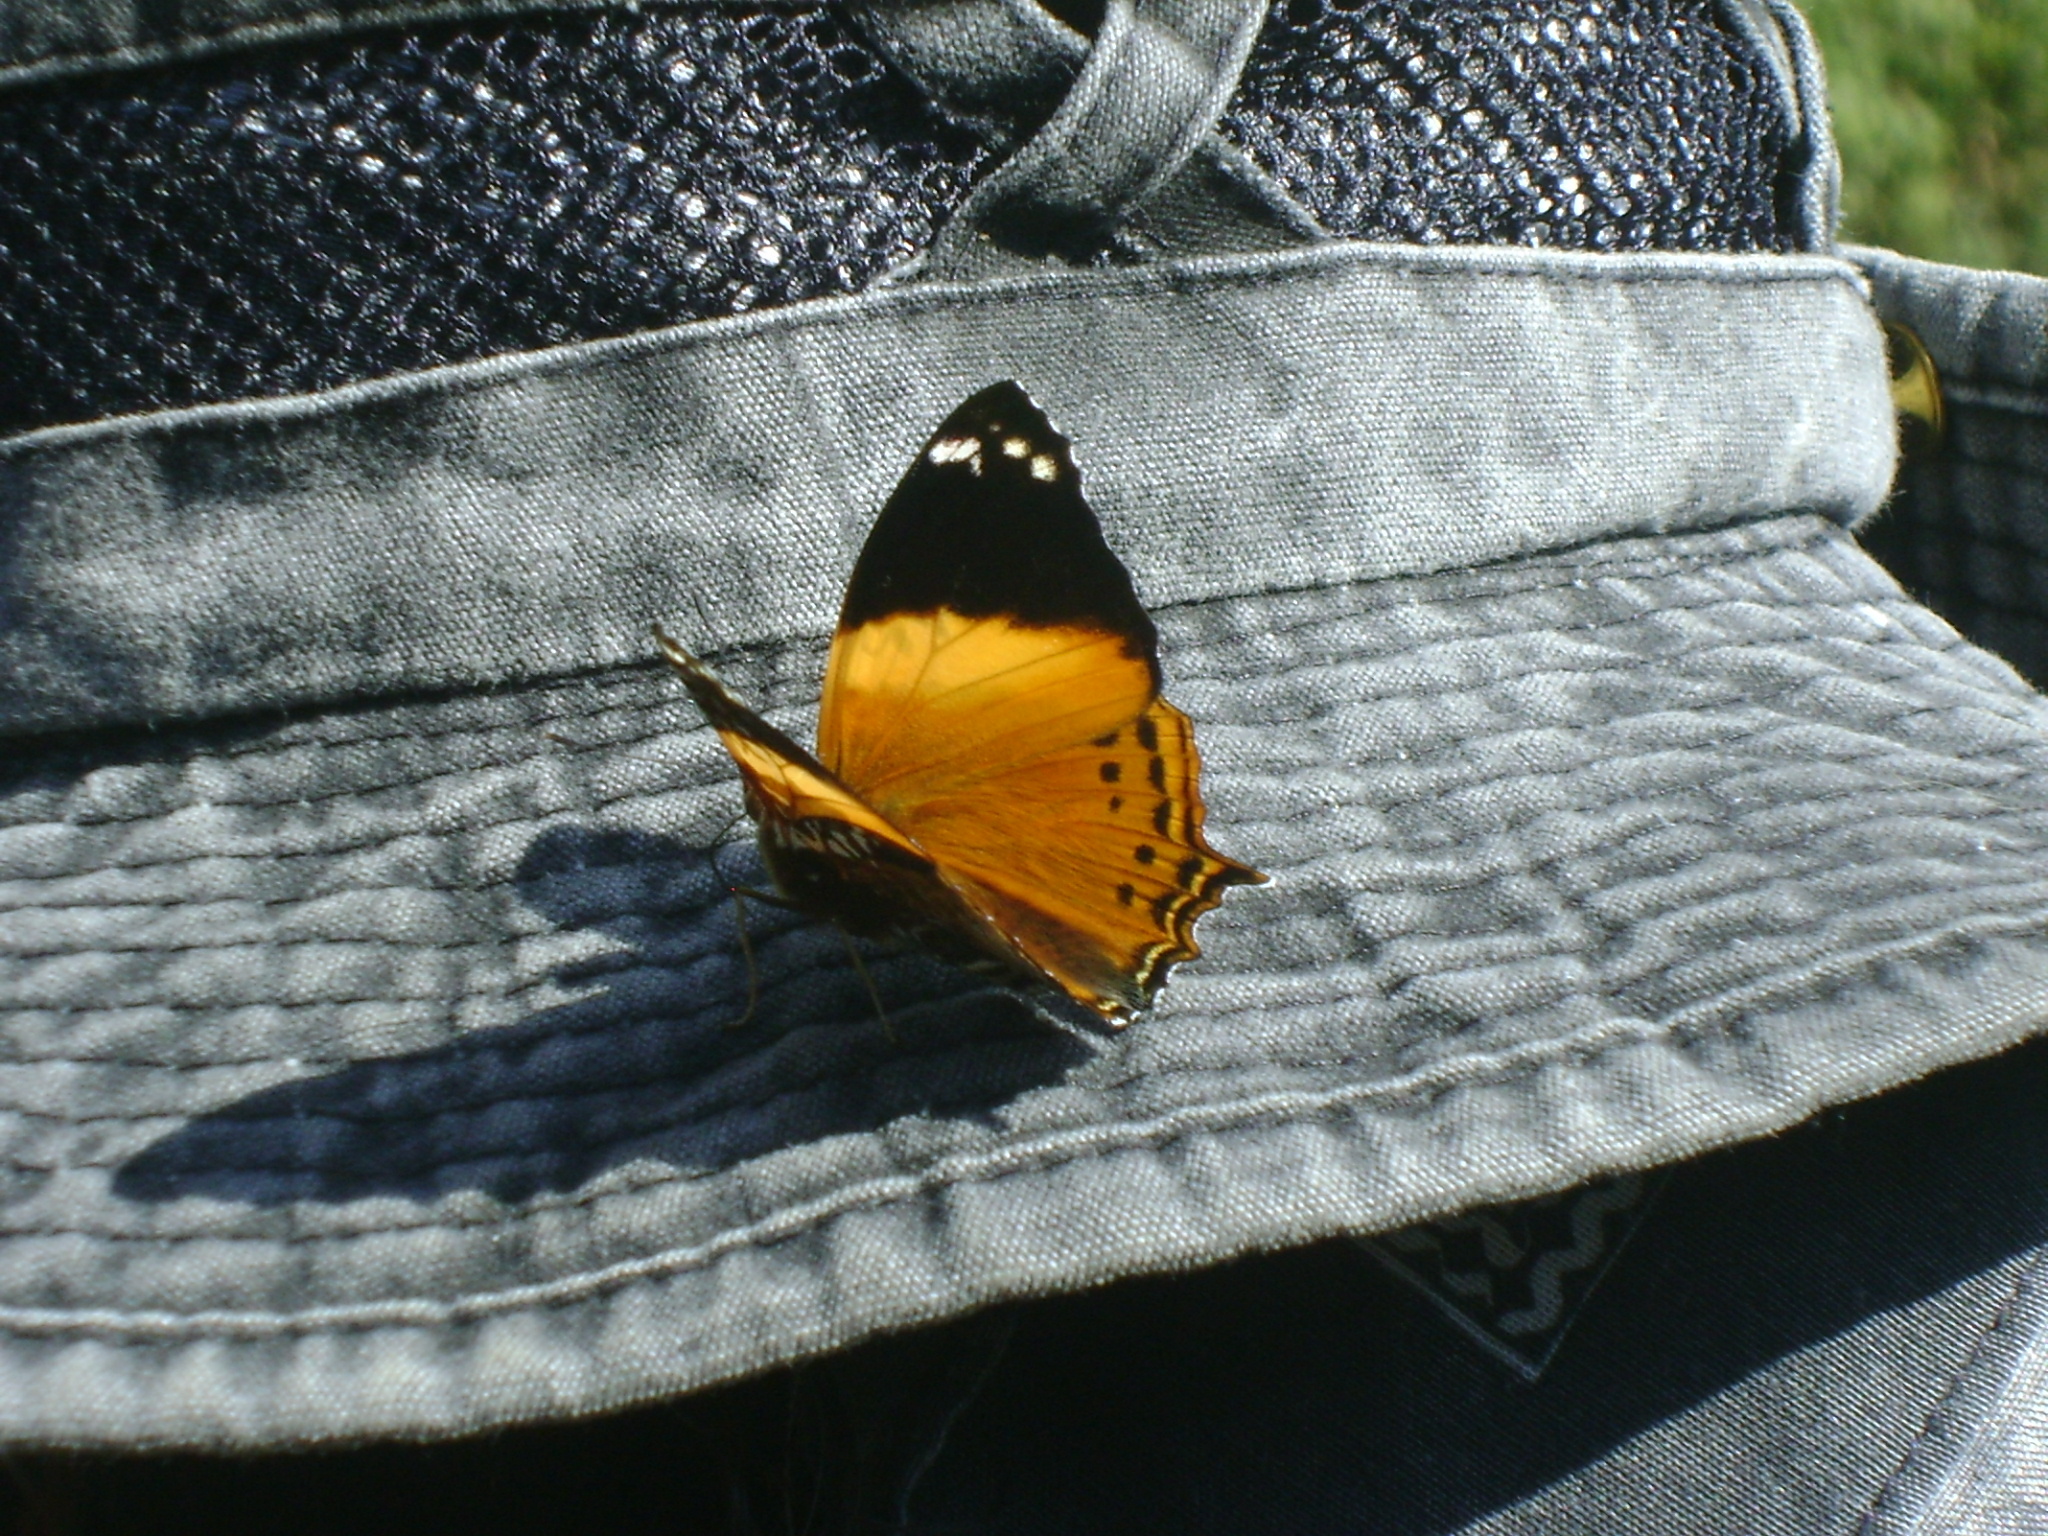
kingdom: Animalia
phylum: Arthropoda
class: Insecta
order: Lepidoptera
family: Nymphalidae
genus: Hypanartia
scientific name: Hypanartia godmanii
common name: Godman's mapwing
